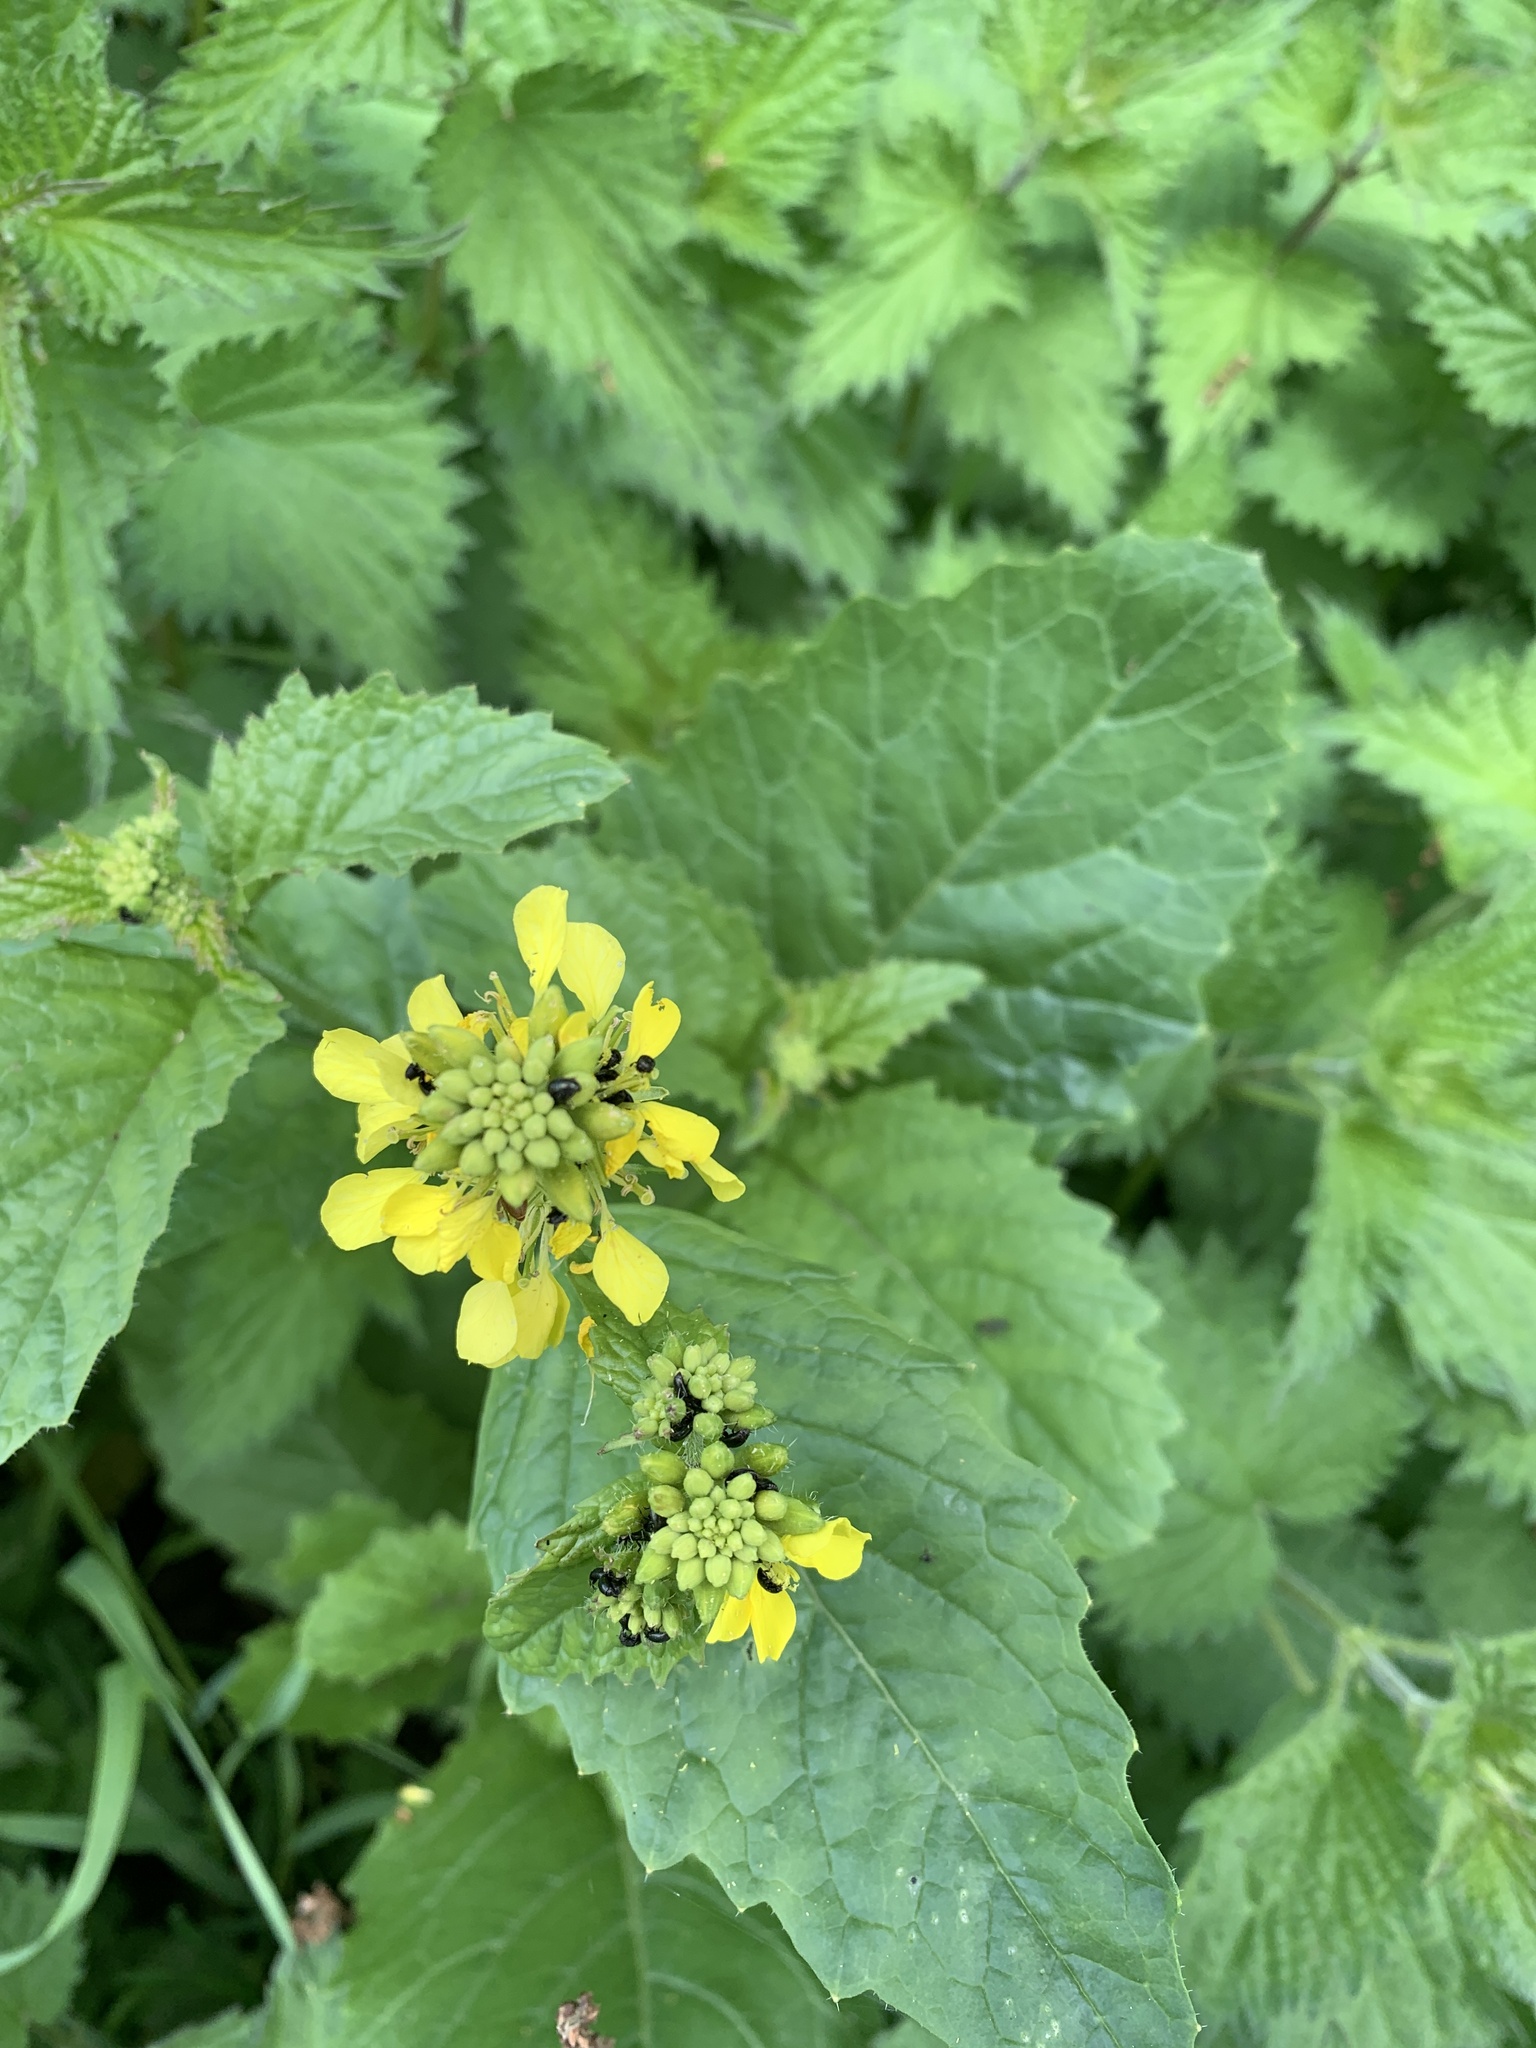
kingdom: Plantae
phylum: Tracheophyta
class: Magnoliopsida
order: Brassicales
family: Brassicaceae
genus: Sinapis
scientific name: Sinapis arvensis
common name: Charlock
